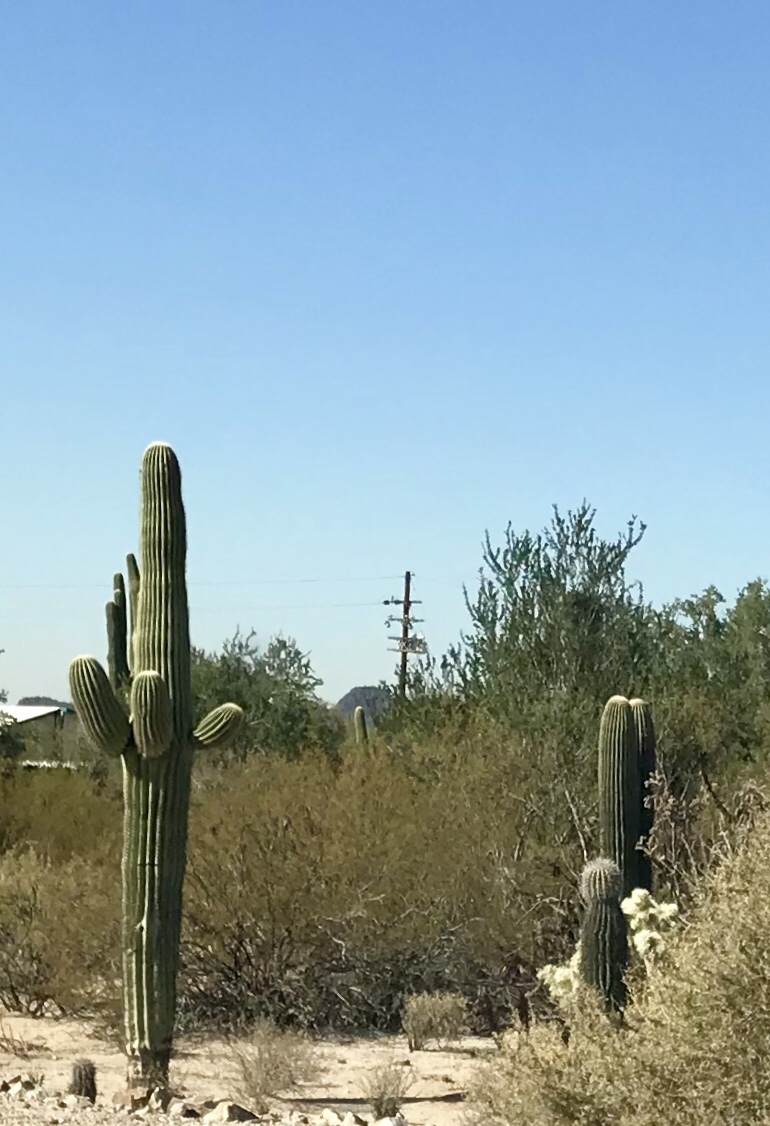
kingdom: Plantae
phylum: Tracheophyta
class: Magnoliopsida
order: Caryophyllales
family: Cactaceae
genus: Carnegiea
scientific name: Carnegiea gigantea
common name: Saguaro
